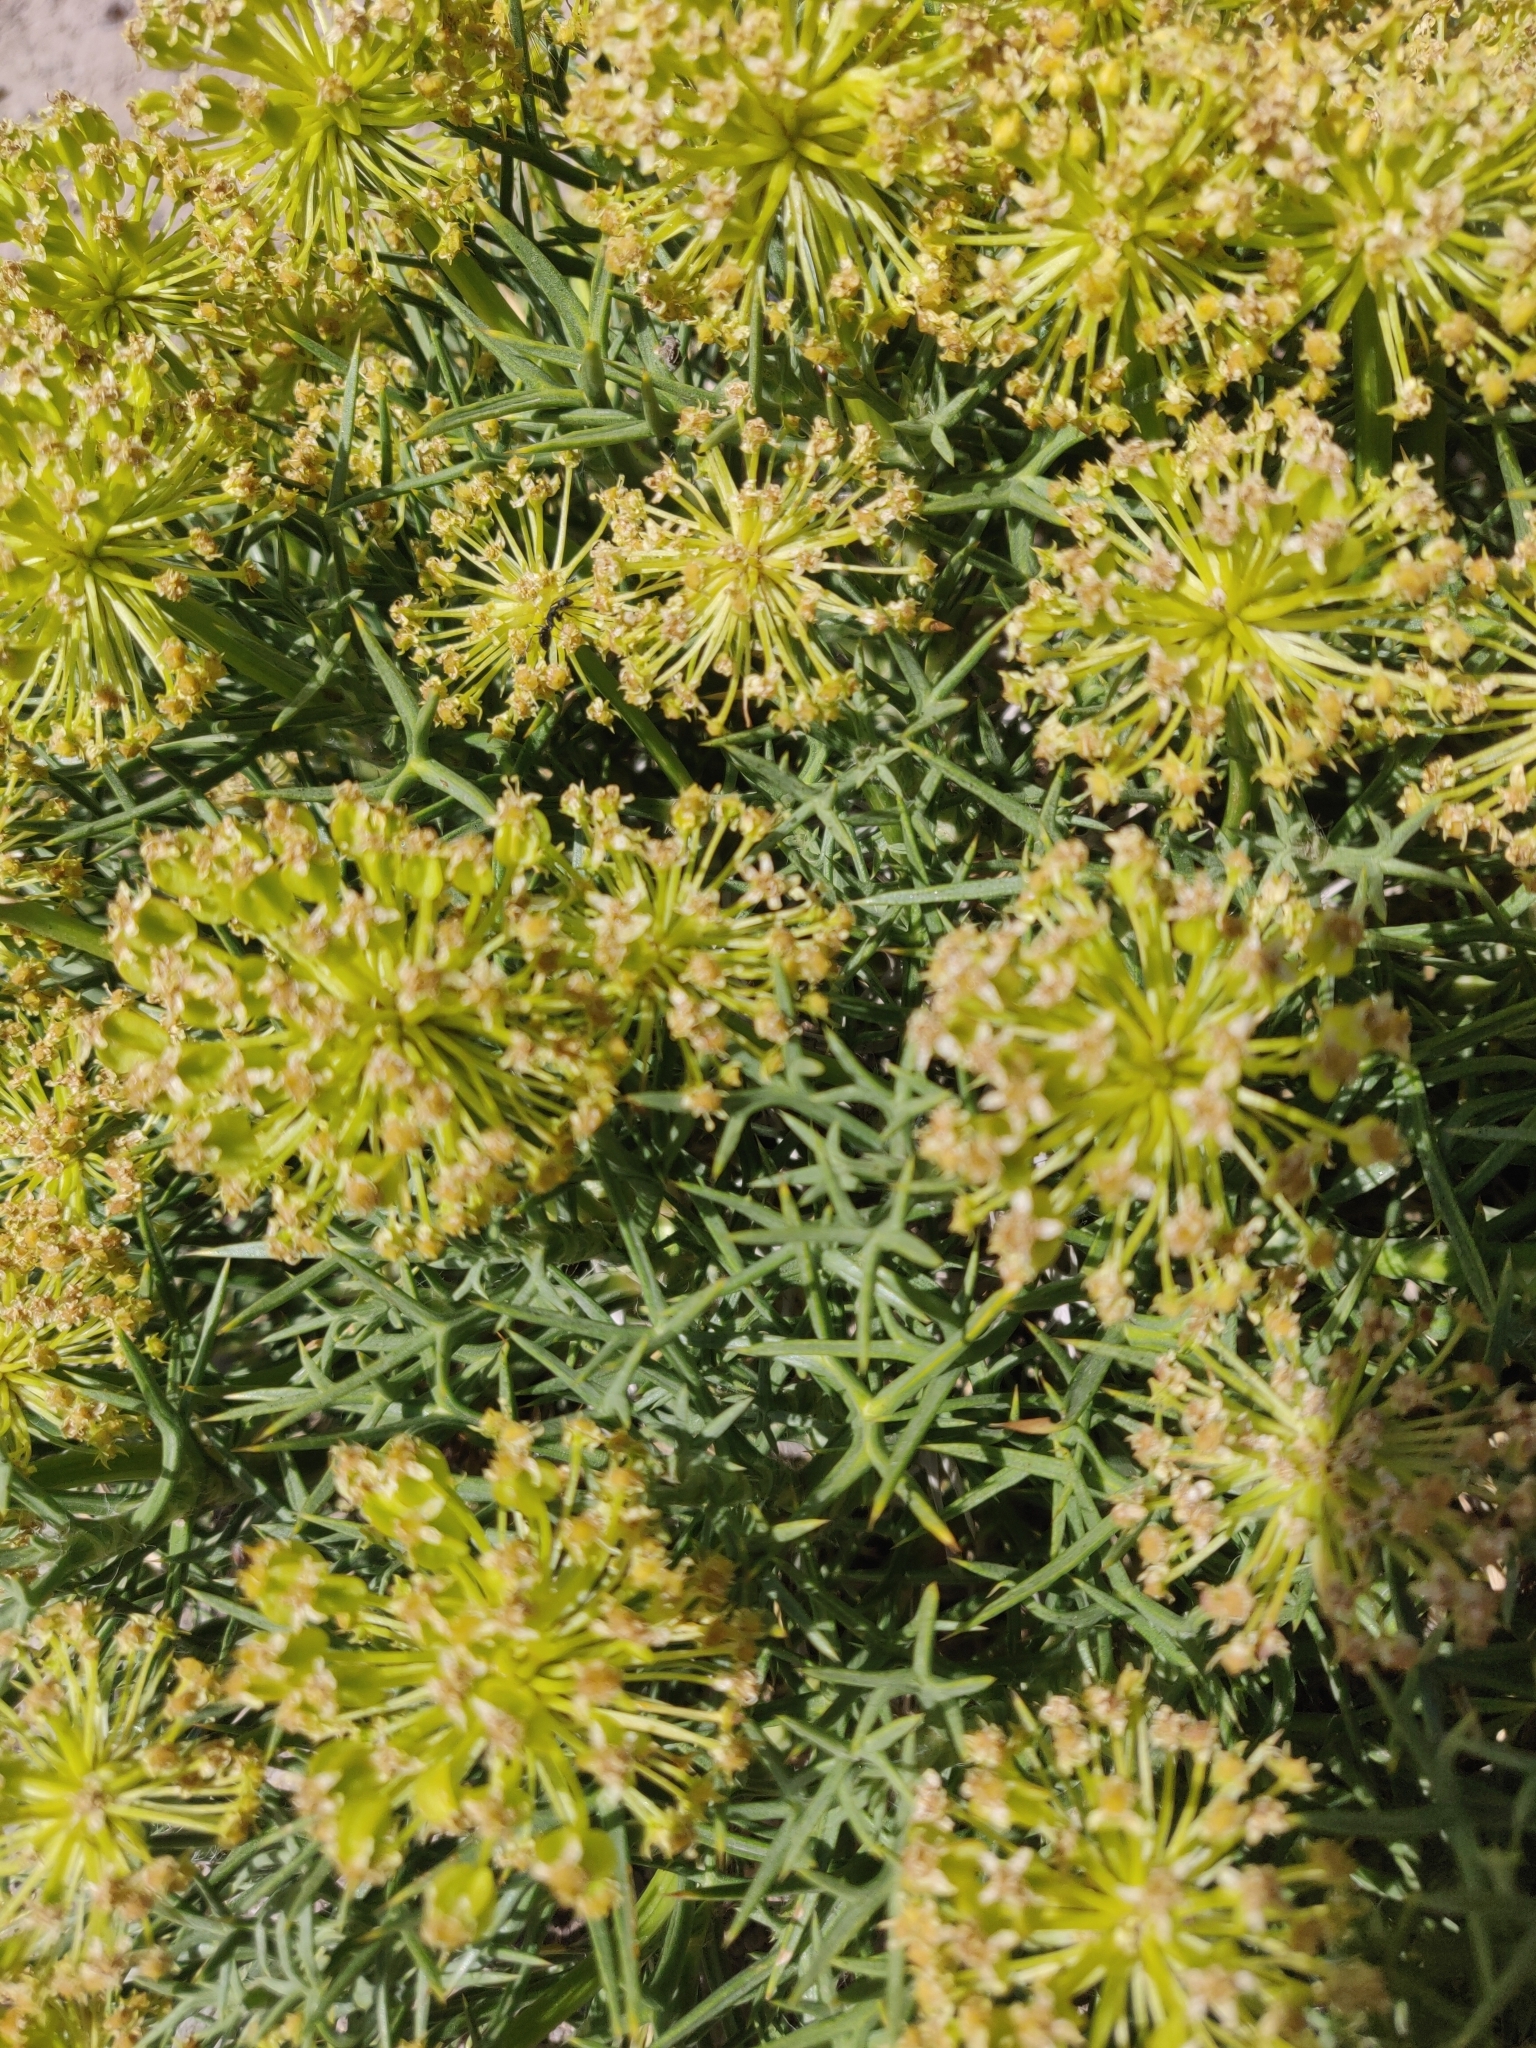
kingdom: Plantae
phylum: Tracheophyta
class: Magnoliopsida
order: Apiales
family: Apiaceae
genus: Azorella
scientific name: Azorella prolifera
